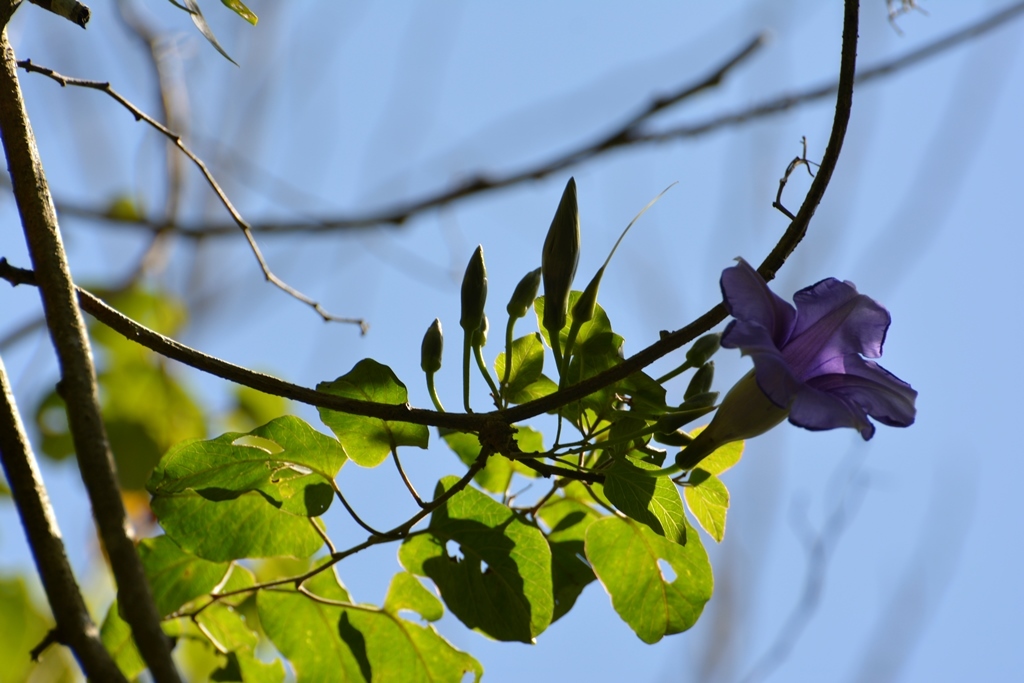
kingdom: Plantae
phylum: Tracheophyta
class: Magnoliopsida
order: Solanales
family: Convolvulaceae
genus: Ipomoea
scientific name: Ipomoea lindenii
